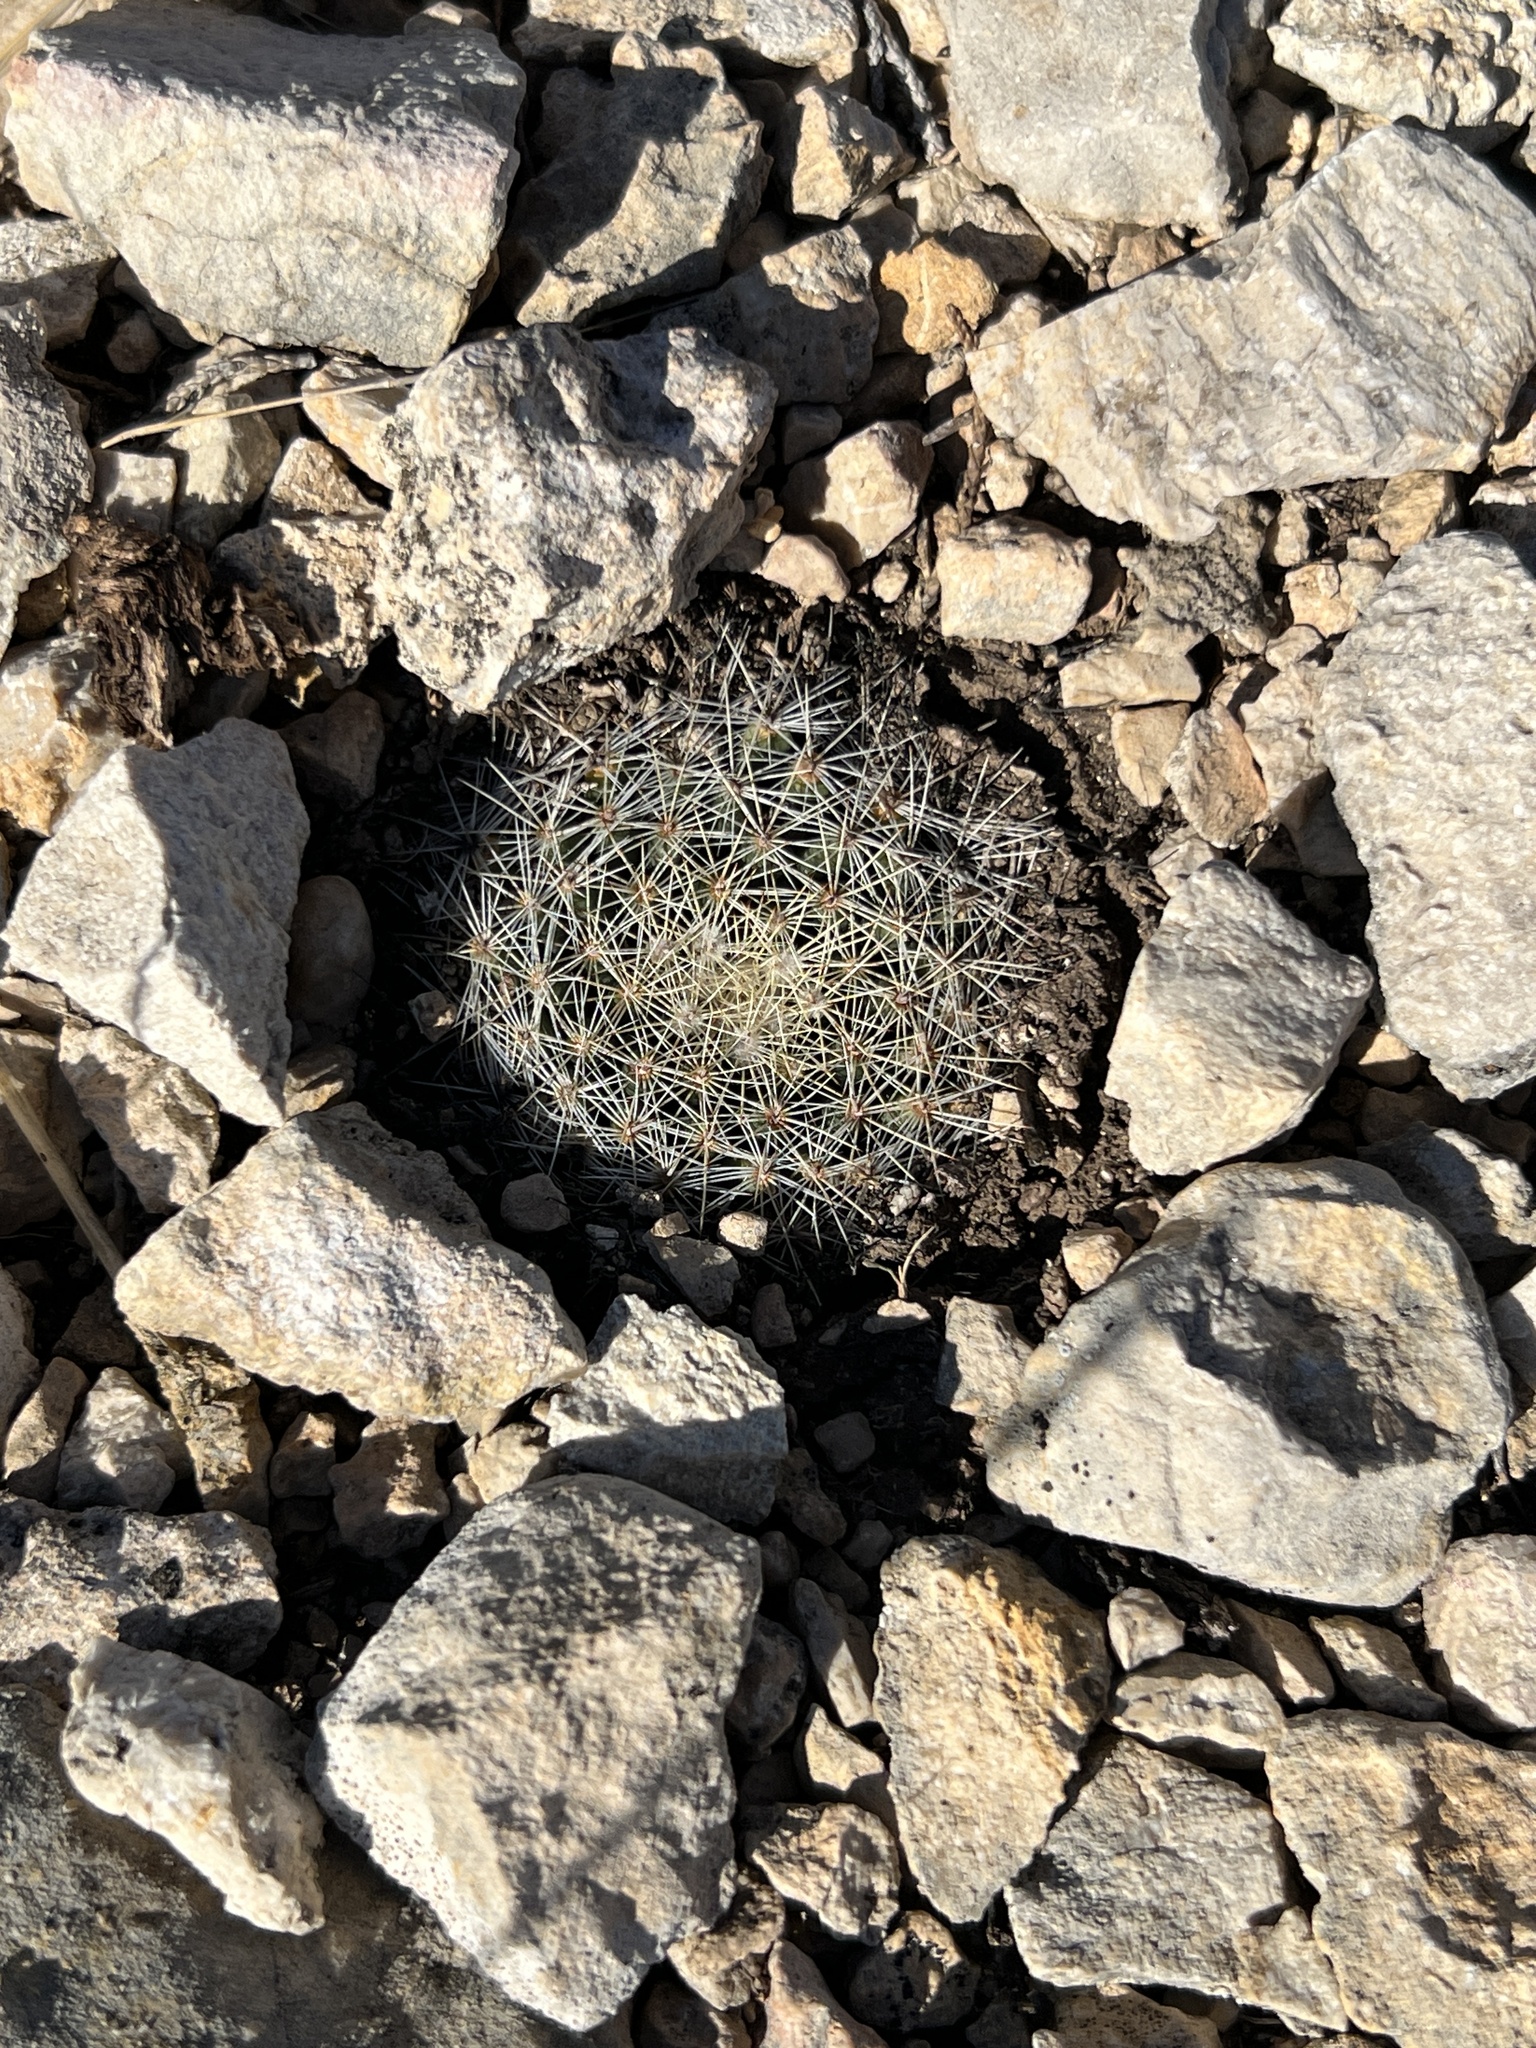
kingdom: Plantae
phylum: Tracheophyta
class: Magnoliopsida
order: Caryophyllales
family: Cactaceae
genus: Mammillaria
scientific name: Mammillaria heyderi
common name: Little nipple cactus
